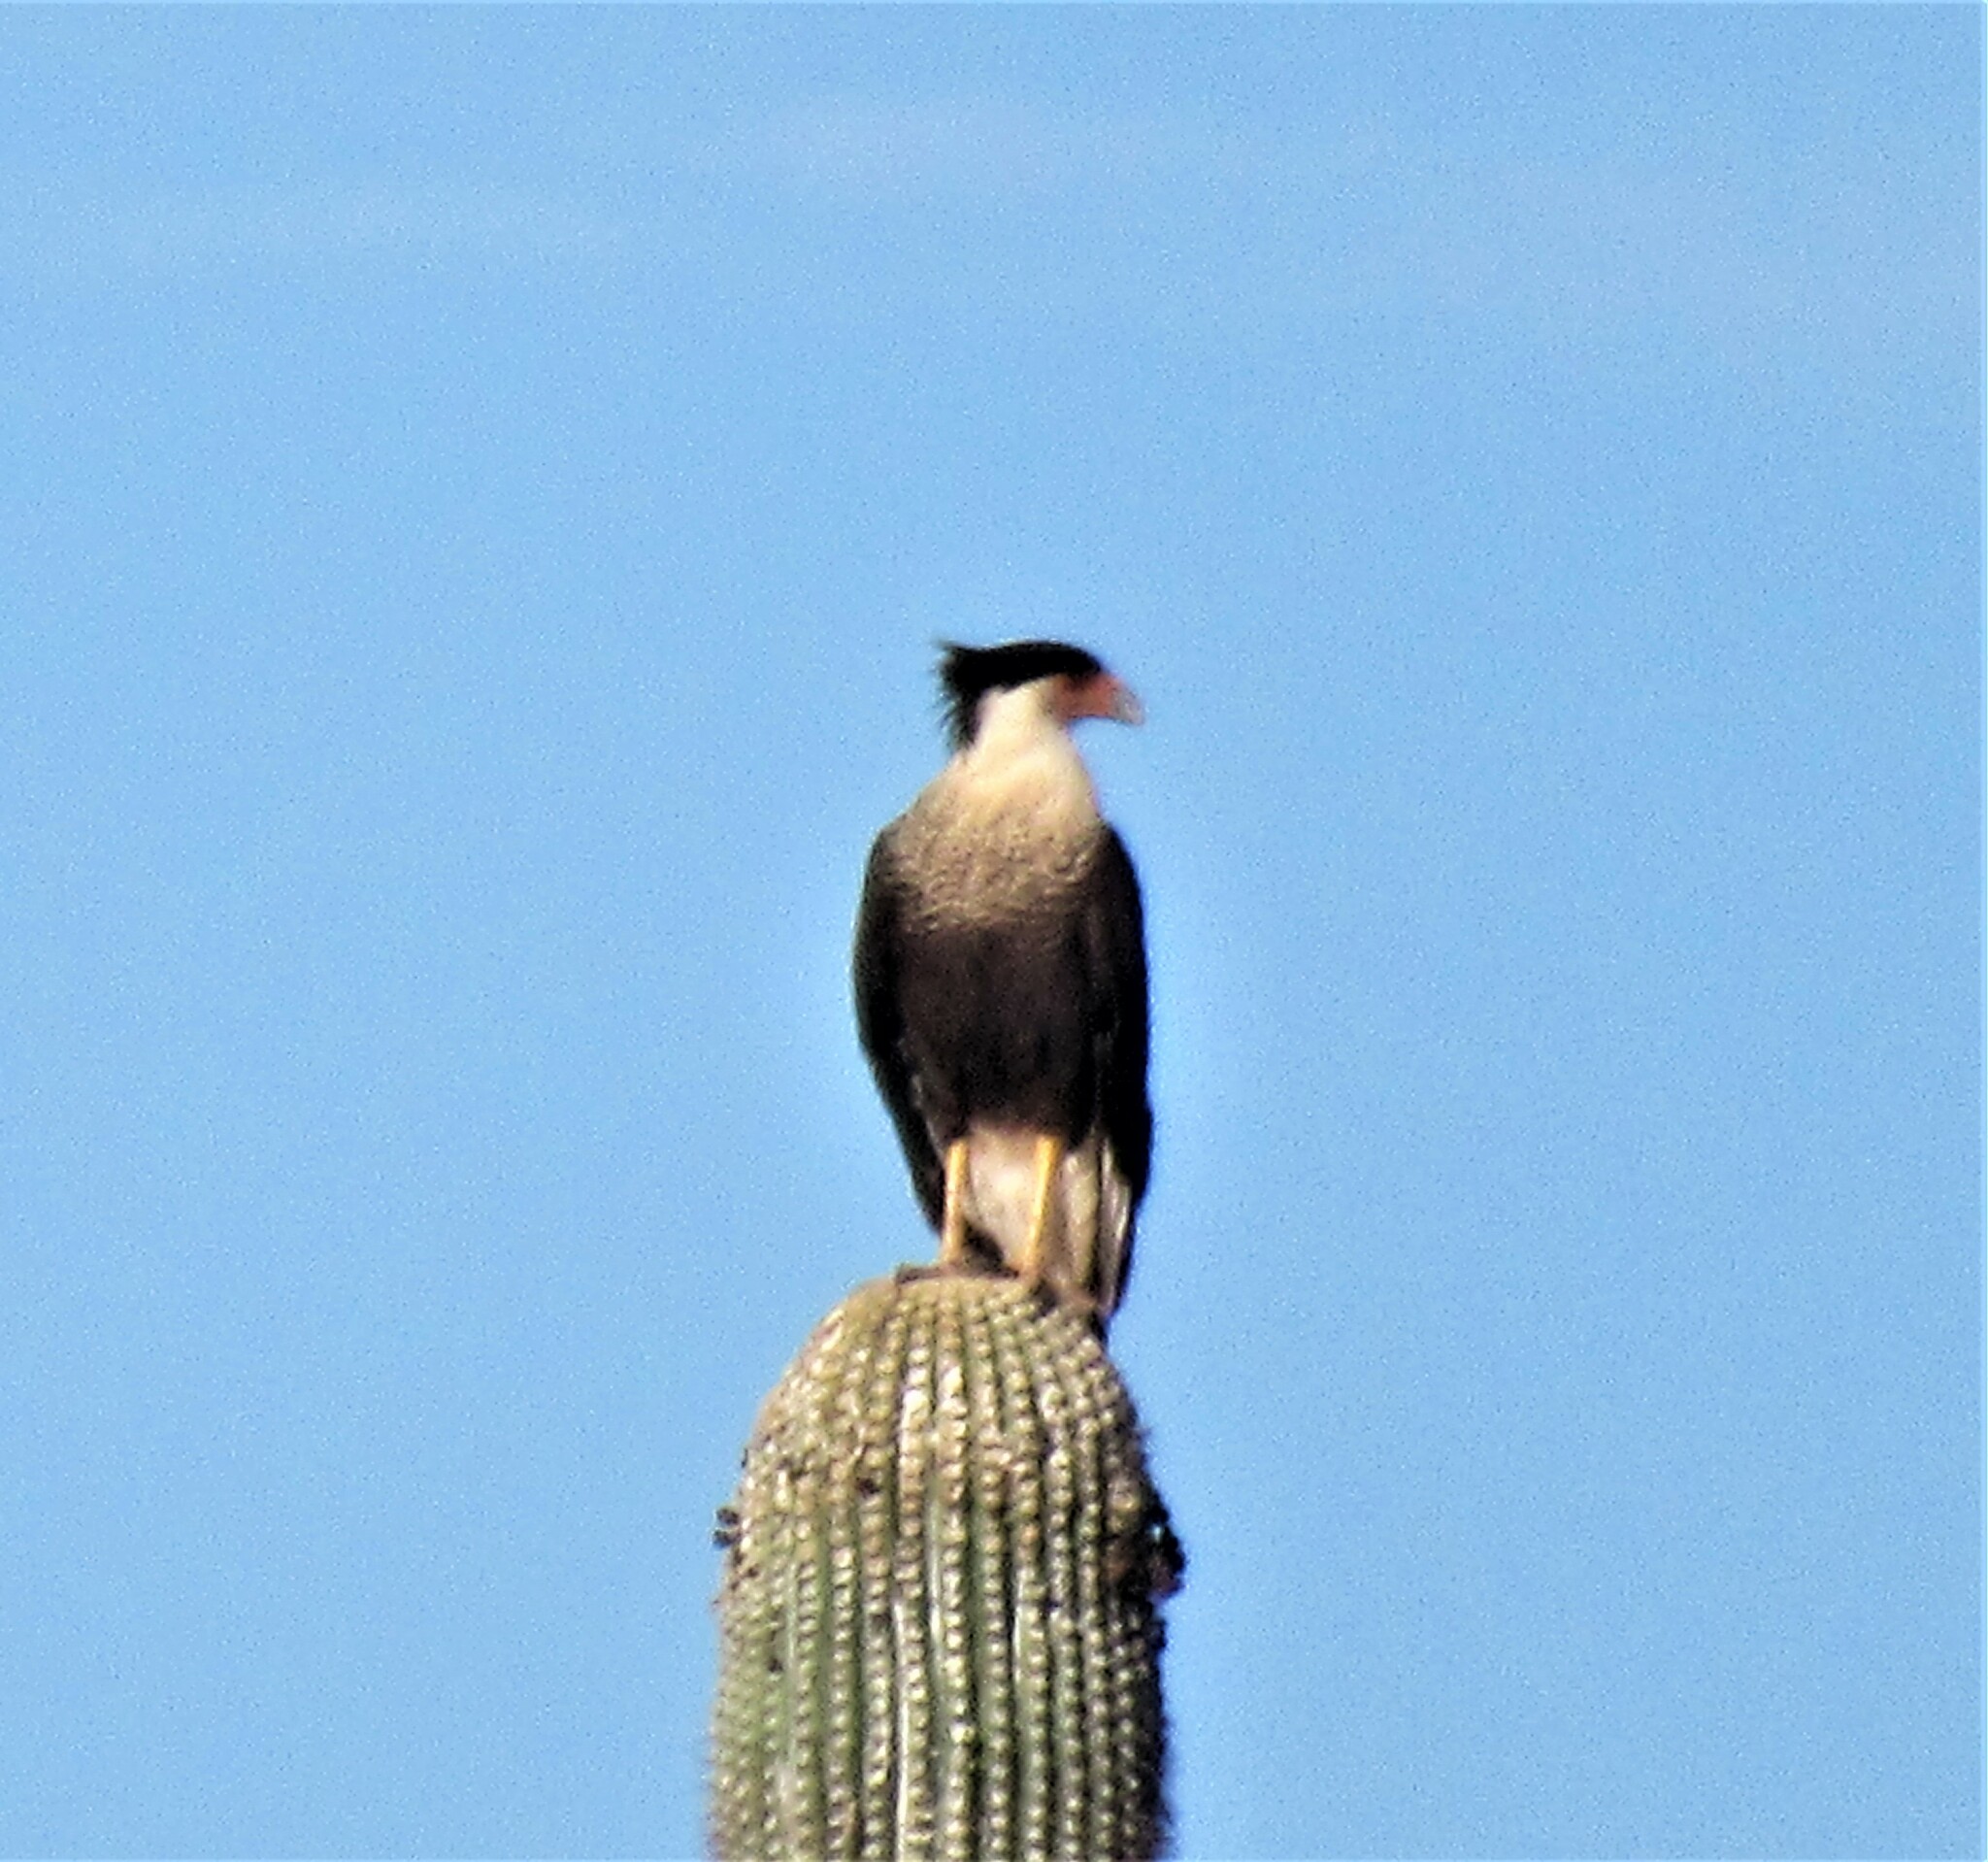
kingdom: Animalia
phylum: Chordata
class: Aves
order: Falconiformes
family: Falconidae
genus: Caracara
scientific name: Caracara plancus
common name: Southern caracara
